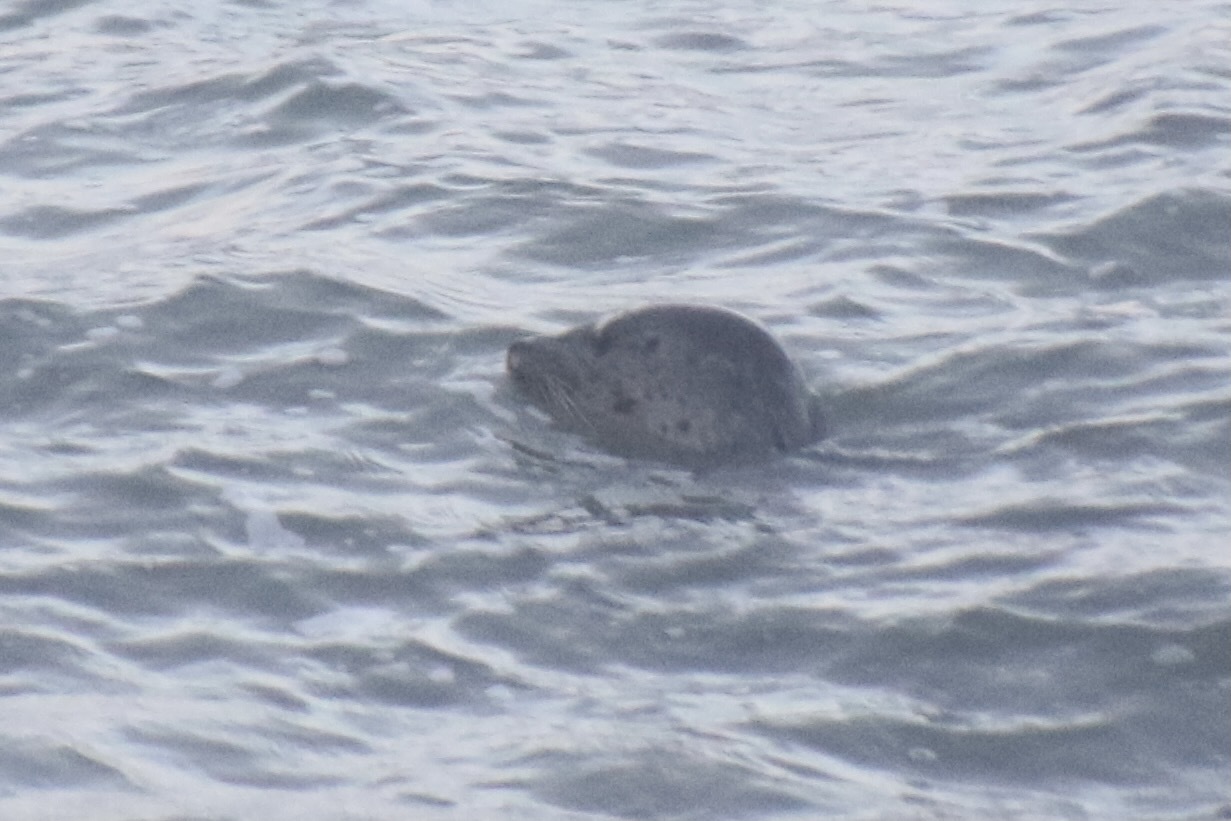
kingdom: Animalia
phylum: Chordata
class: Mammalia
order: Carnivora
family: Phocidae
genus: Phoca
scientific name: Phoca vitulina
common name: Harbor seal
